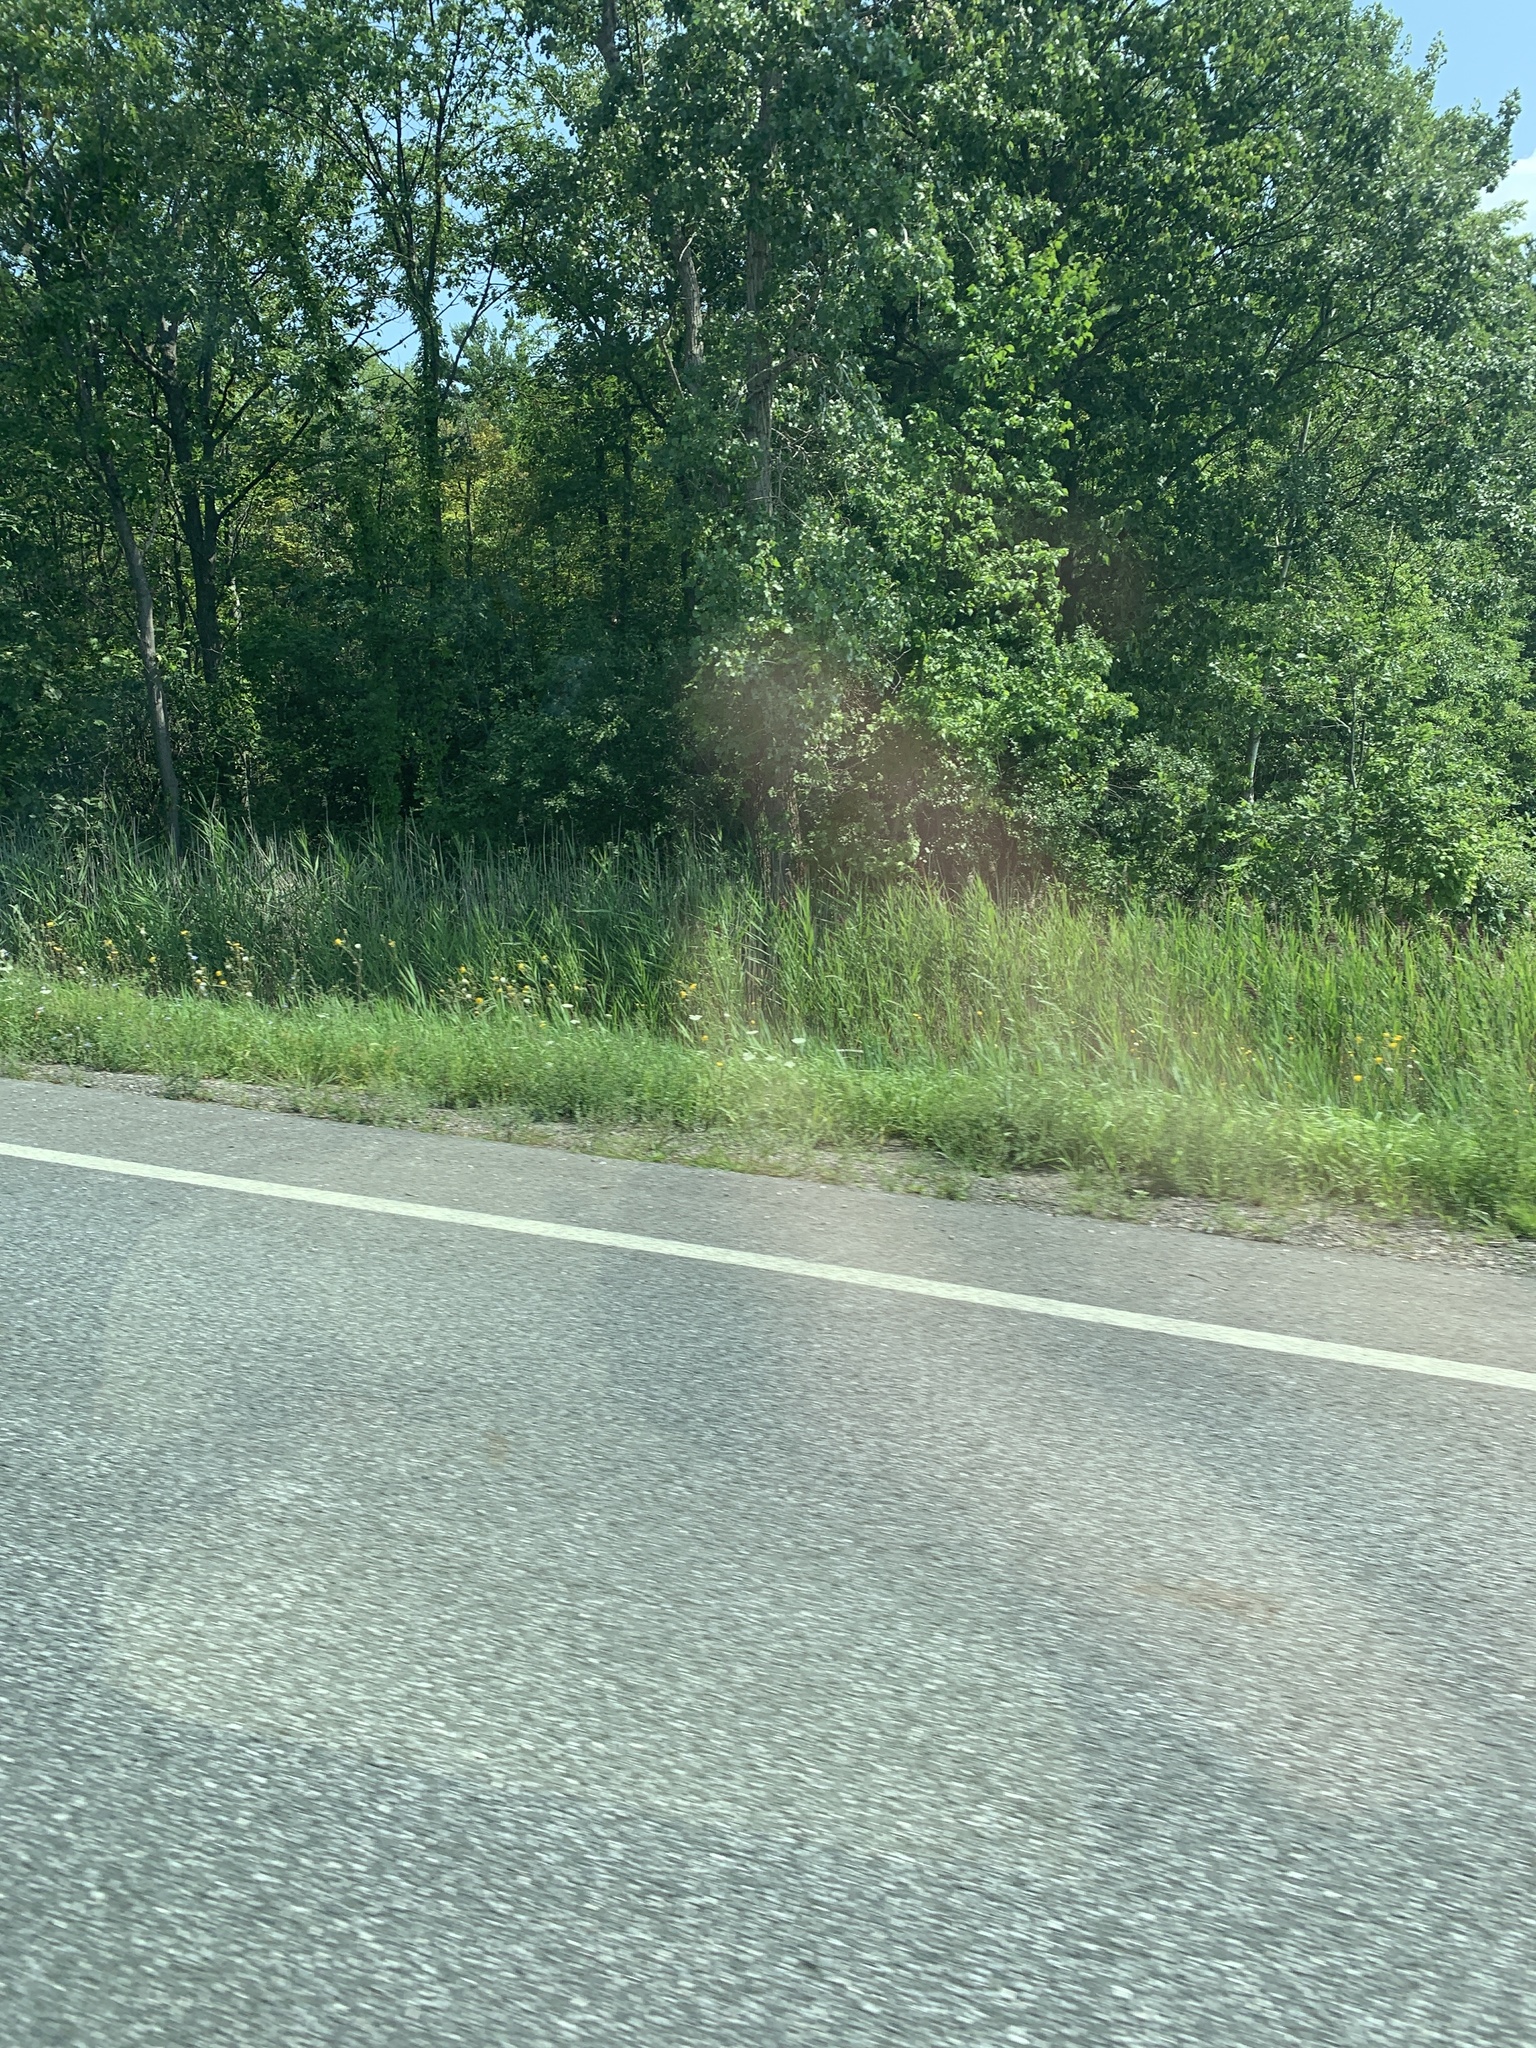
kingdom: Plantae
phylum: Tracheophyta
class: Liliopsida
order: Poales
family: Poaceae
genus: Phragmites
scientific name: Phragmites australis
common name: Common reed
